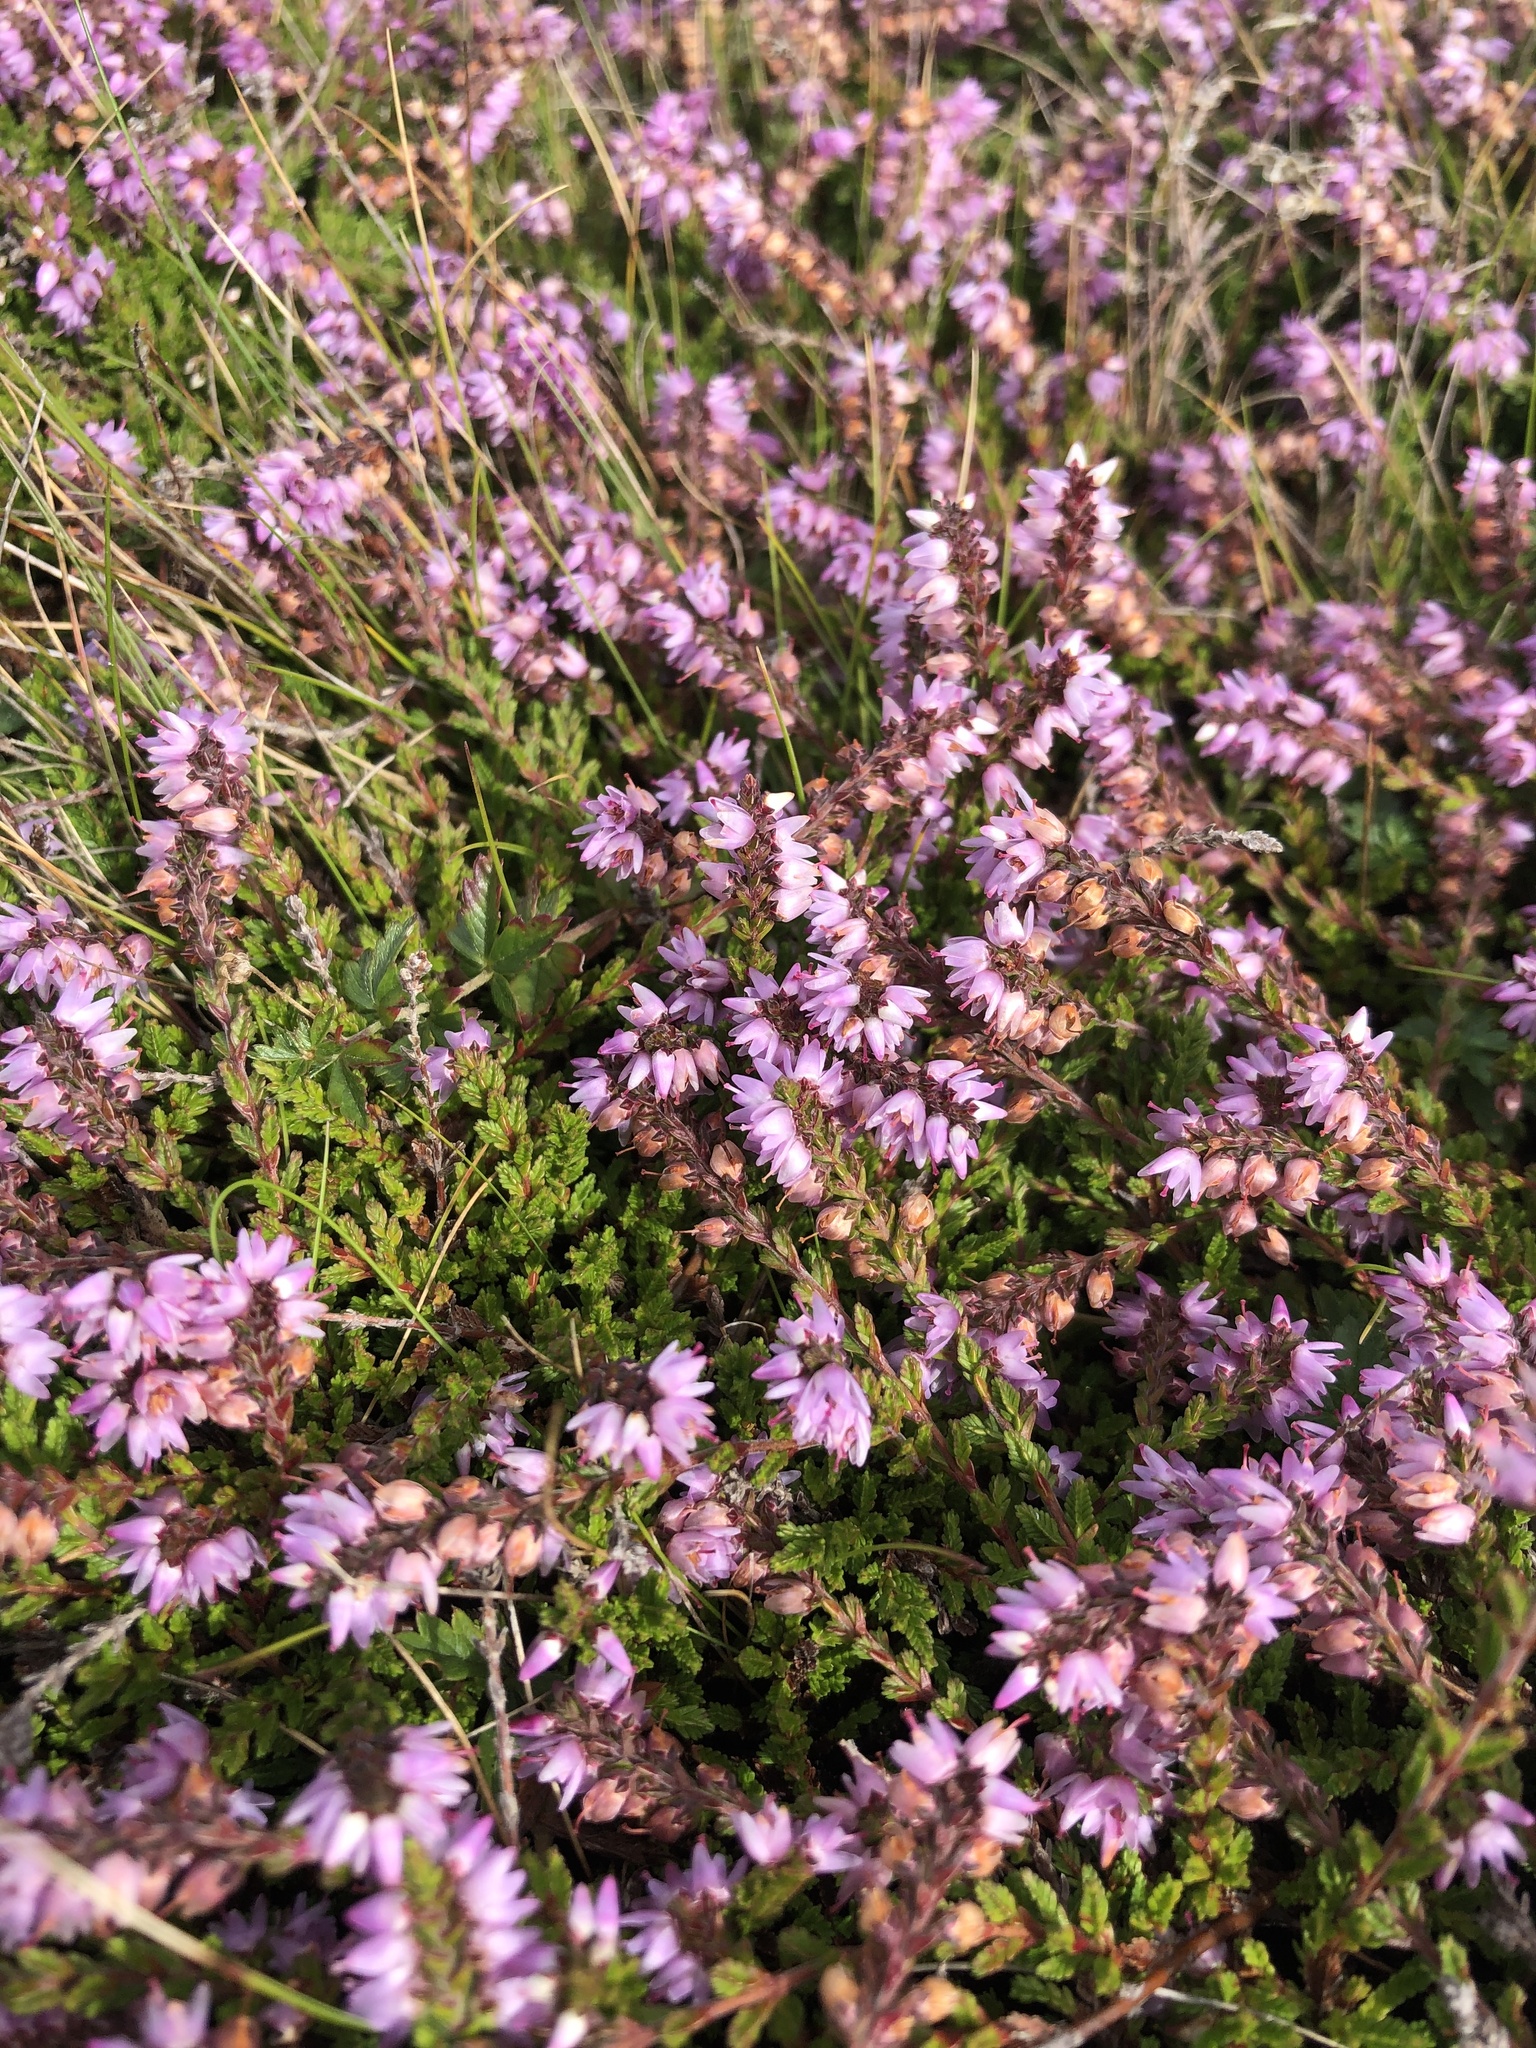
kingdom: Plantae
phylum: Tracheophyta
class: Magnoliopsida
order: Ericales
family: Ericaceae
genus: Calluna
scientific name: Calluna vulgaris
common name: Heather
